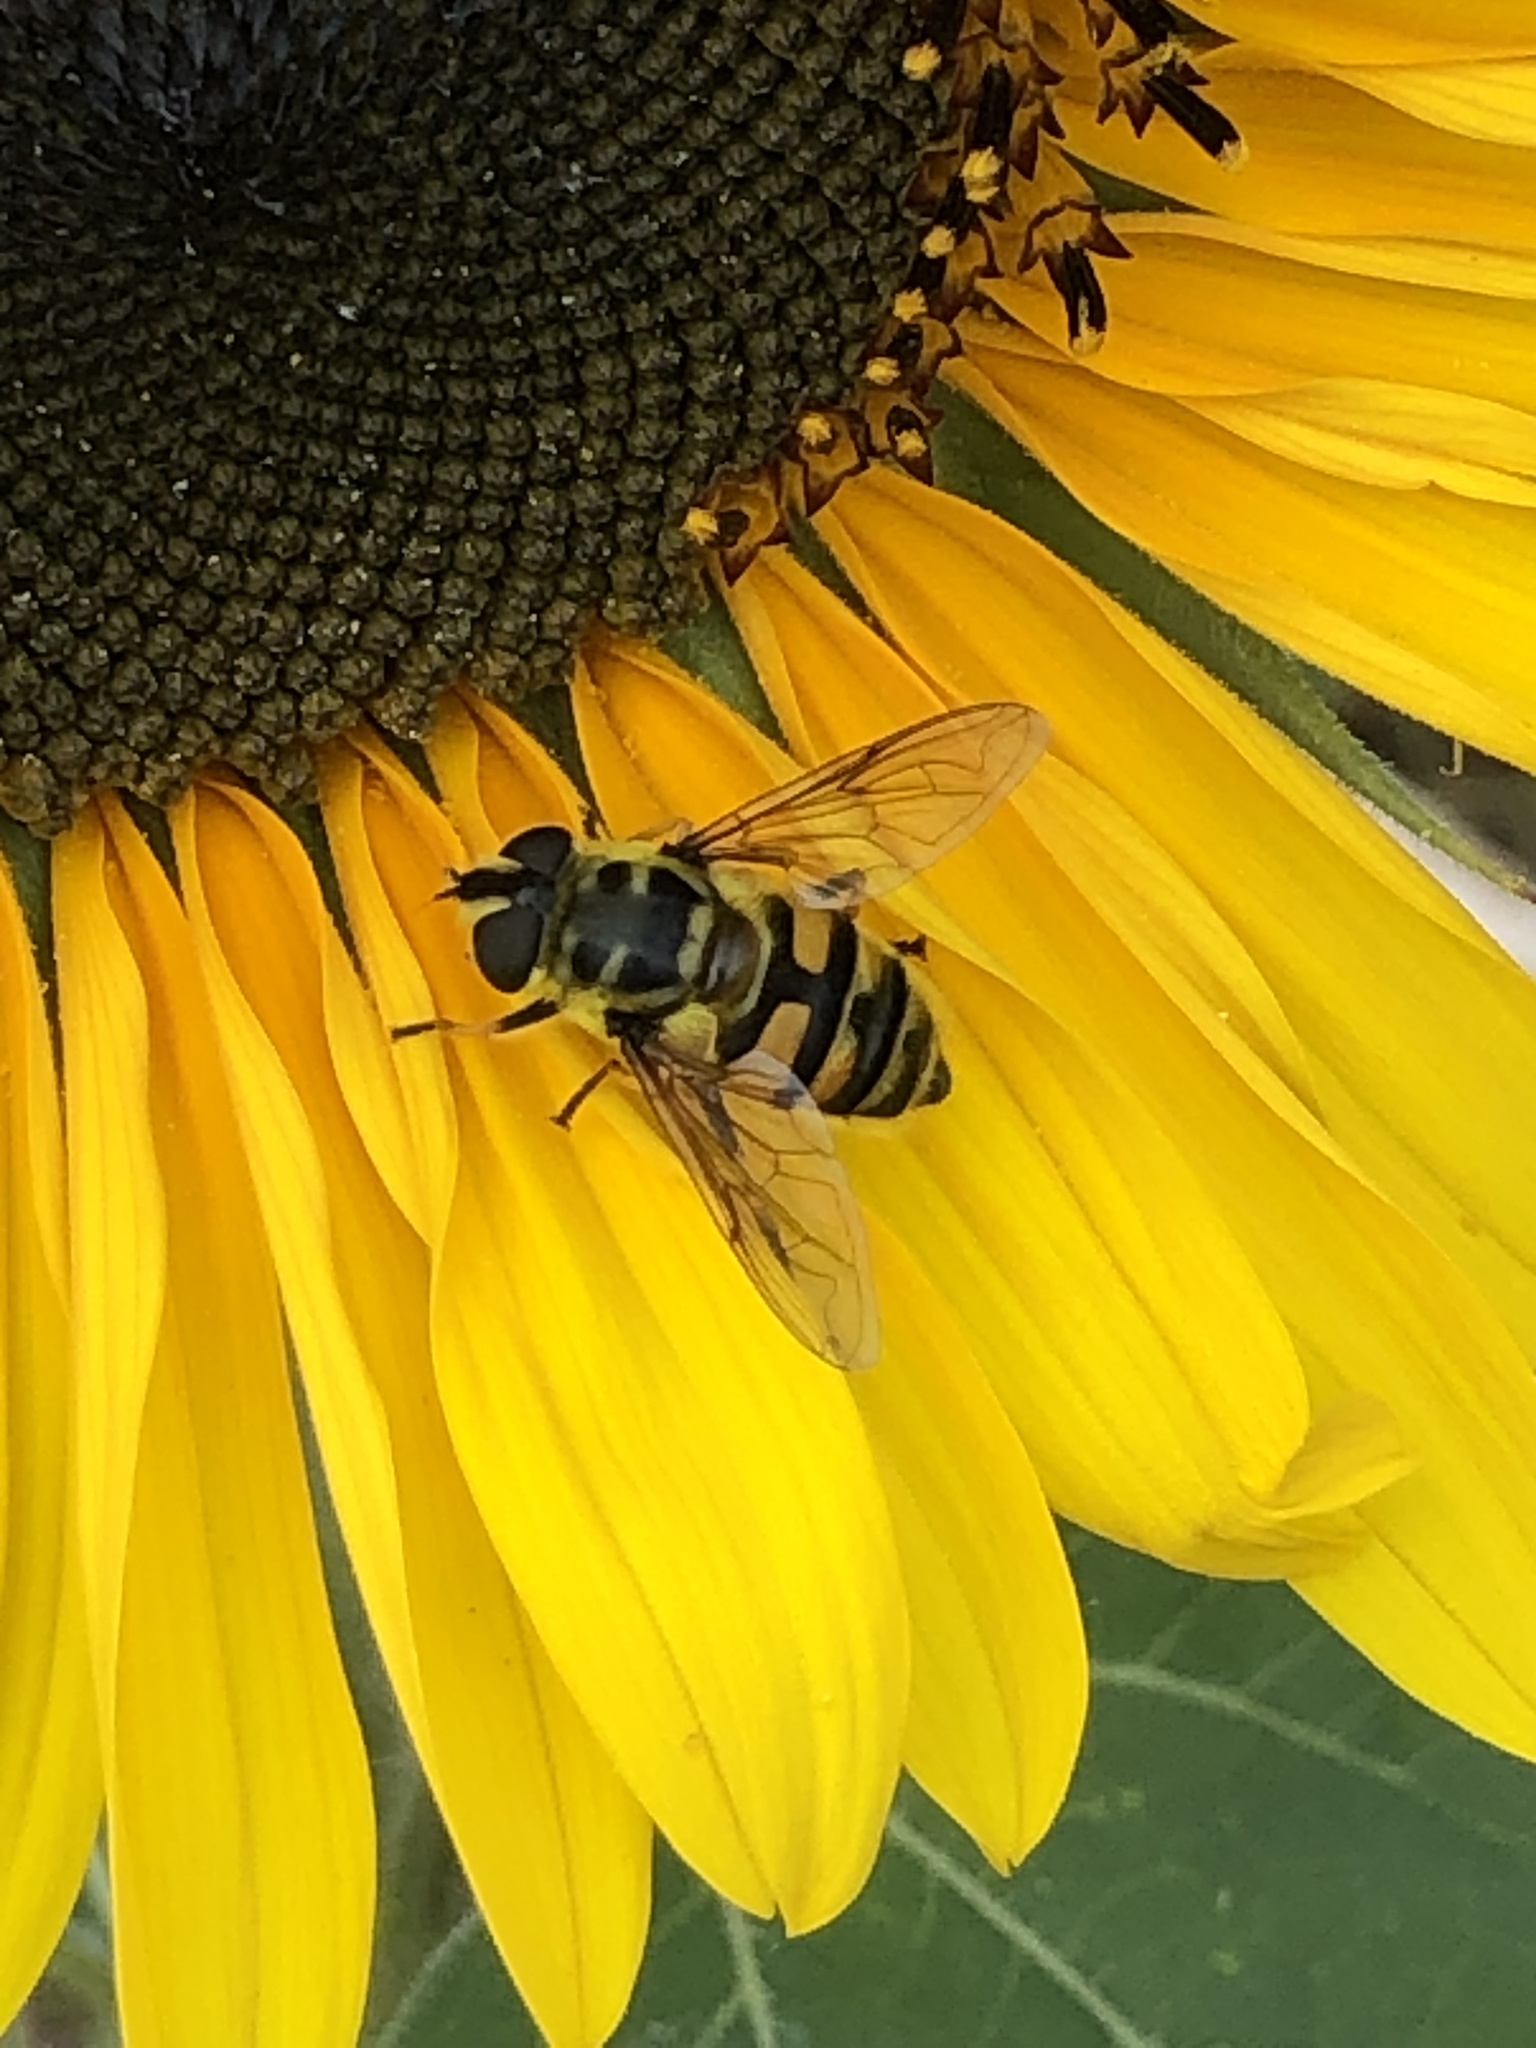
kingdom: Animalia
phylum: Arthropoda
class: Insecta
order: Diptera
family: Syrphidae
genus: Myathropa
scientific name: Myathropa florea
